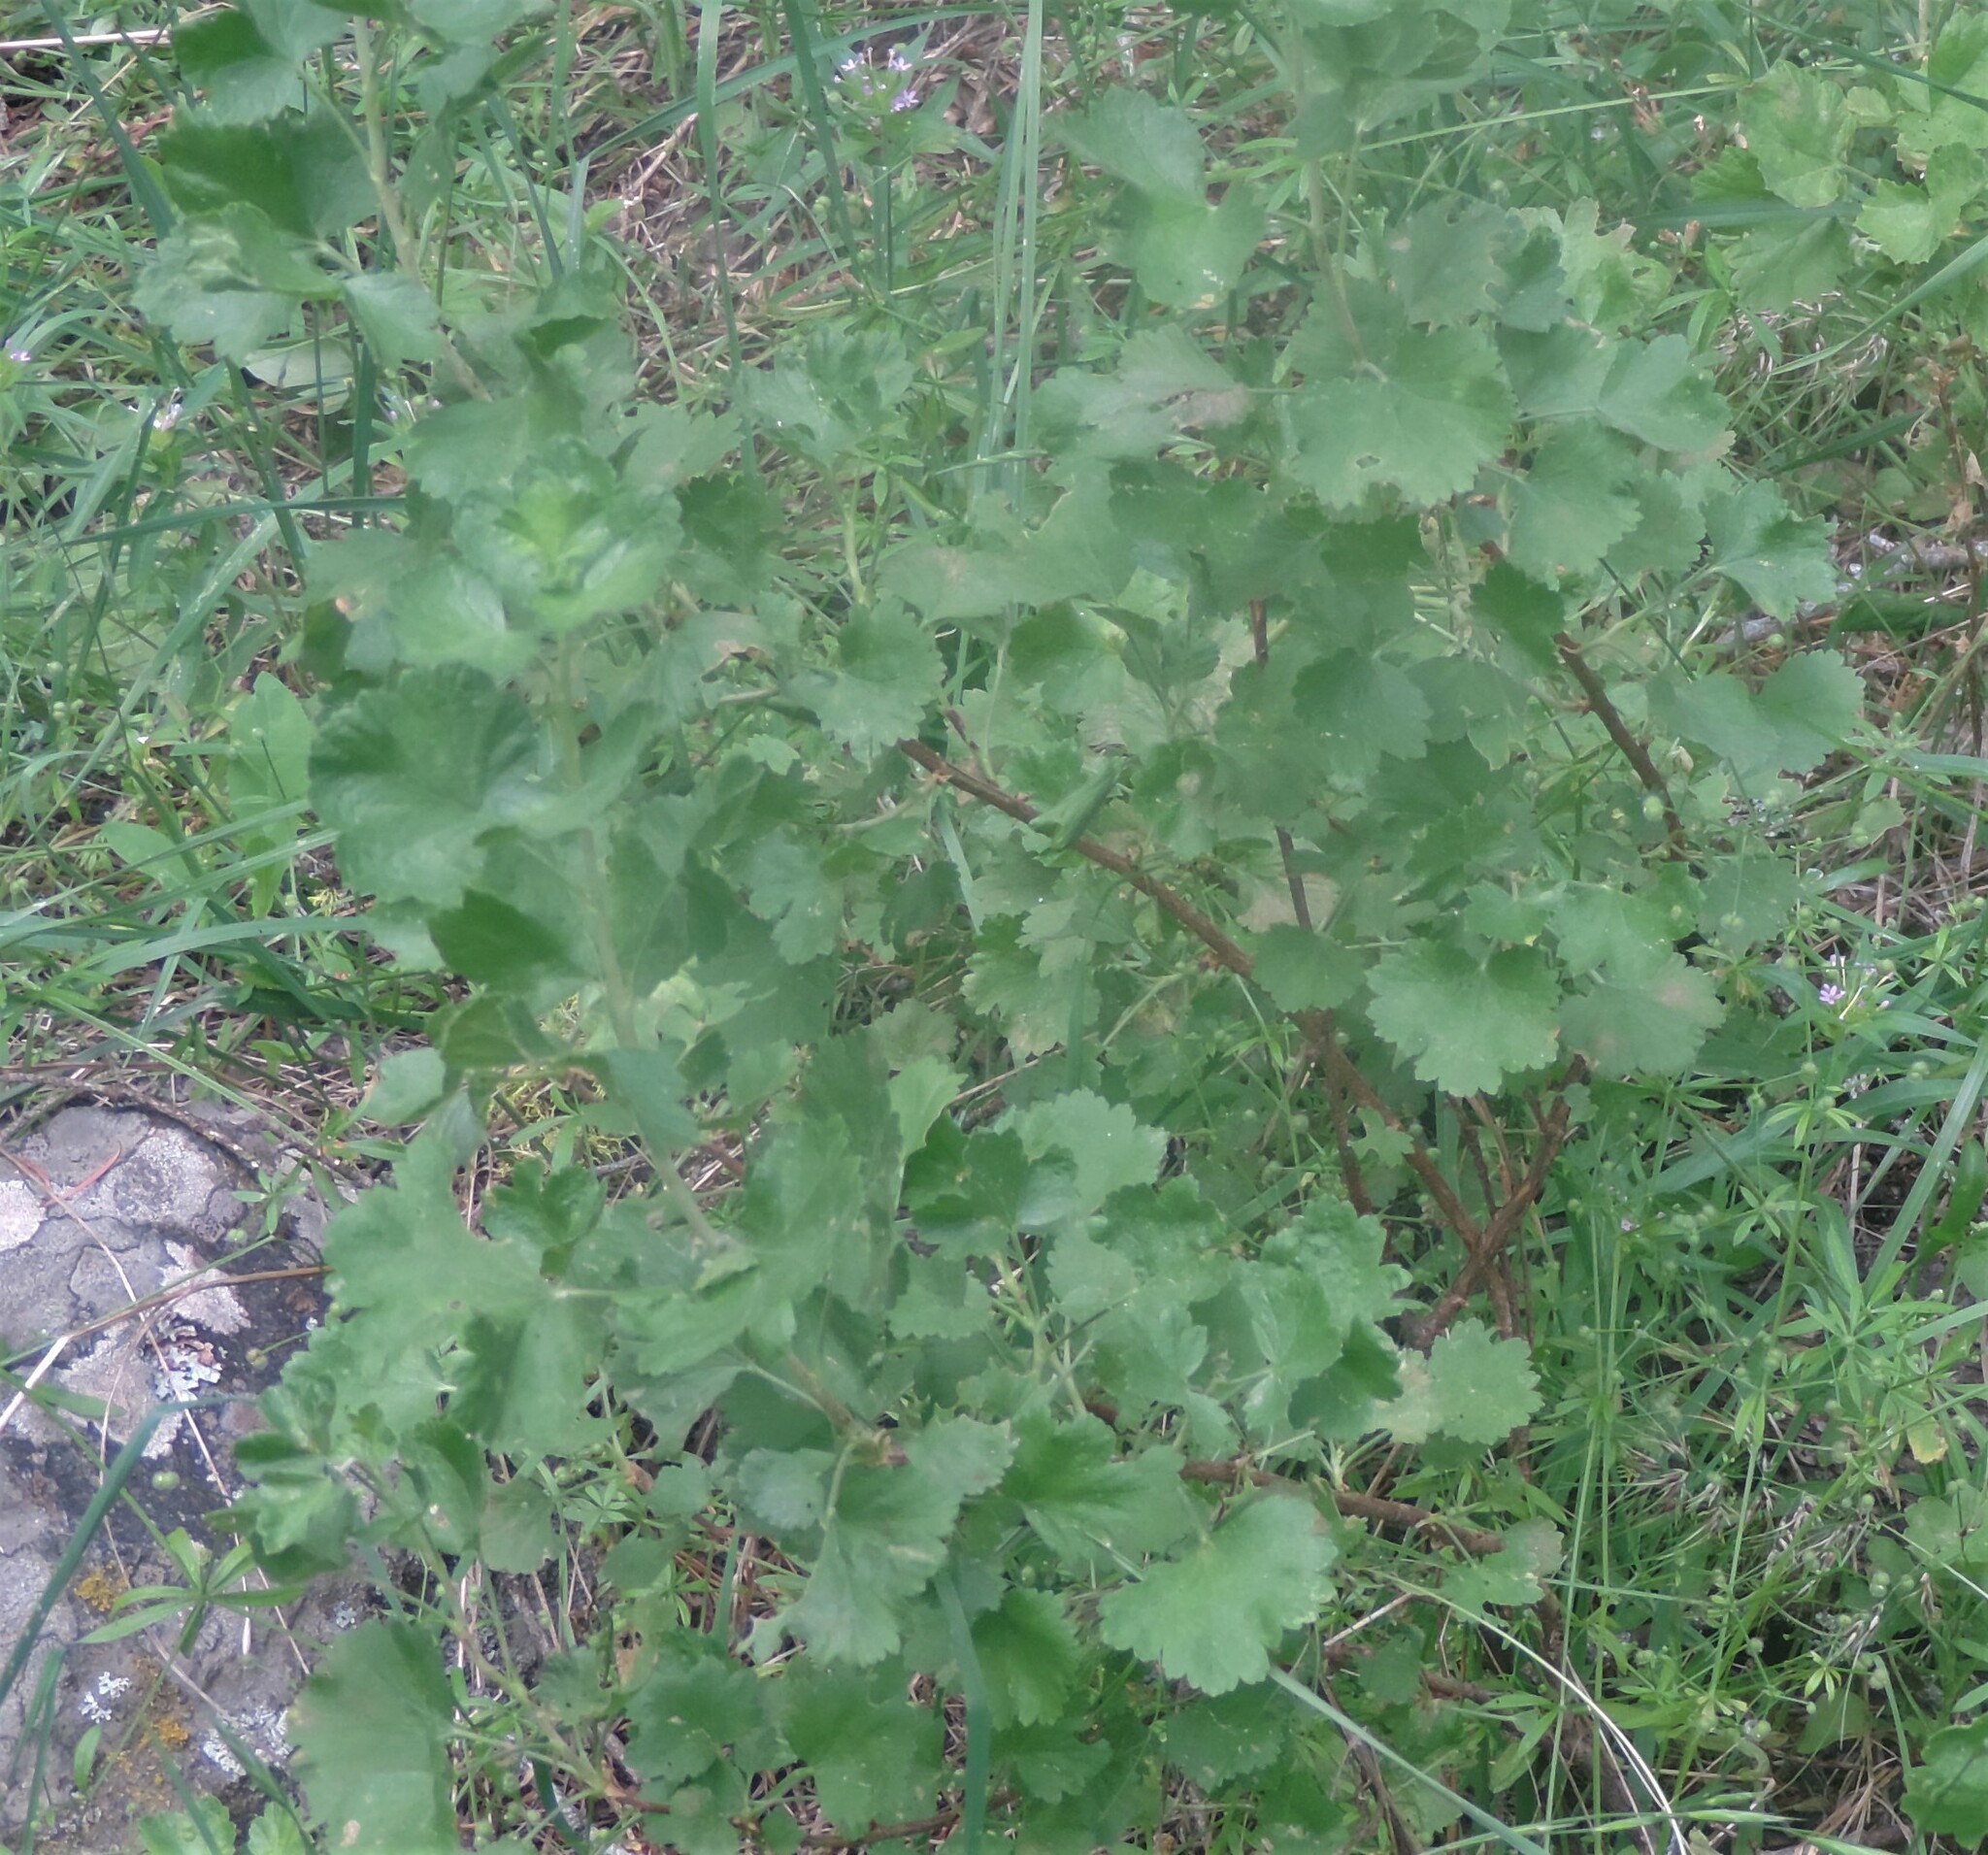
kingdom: Plantae
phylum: Tracheophyta
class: Magnoliopsida
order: Saxifragales
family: Grossulariaceae
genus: Ribes
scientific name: Ribes cereum
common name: Wax currant
